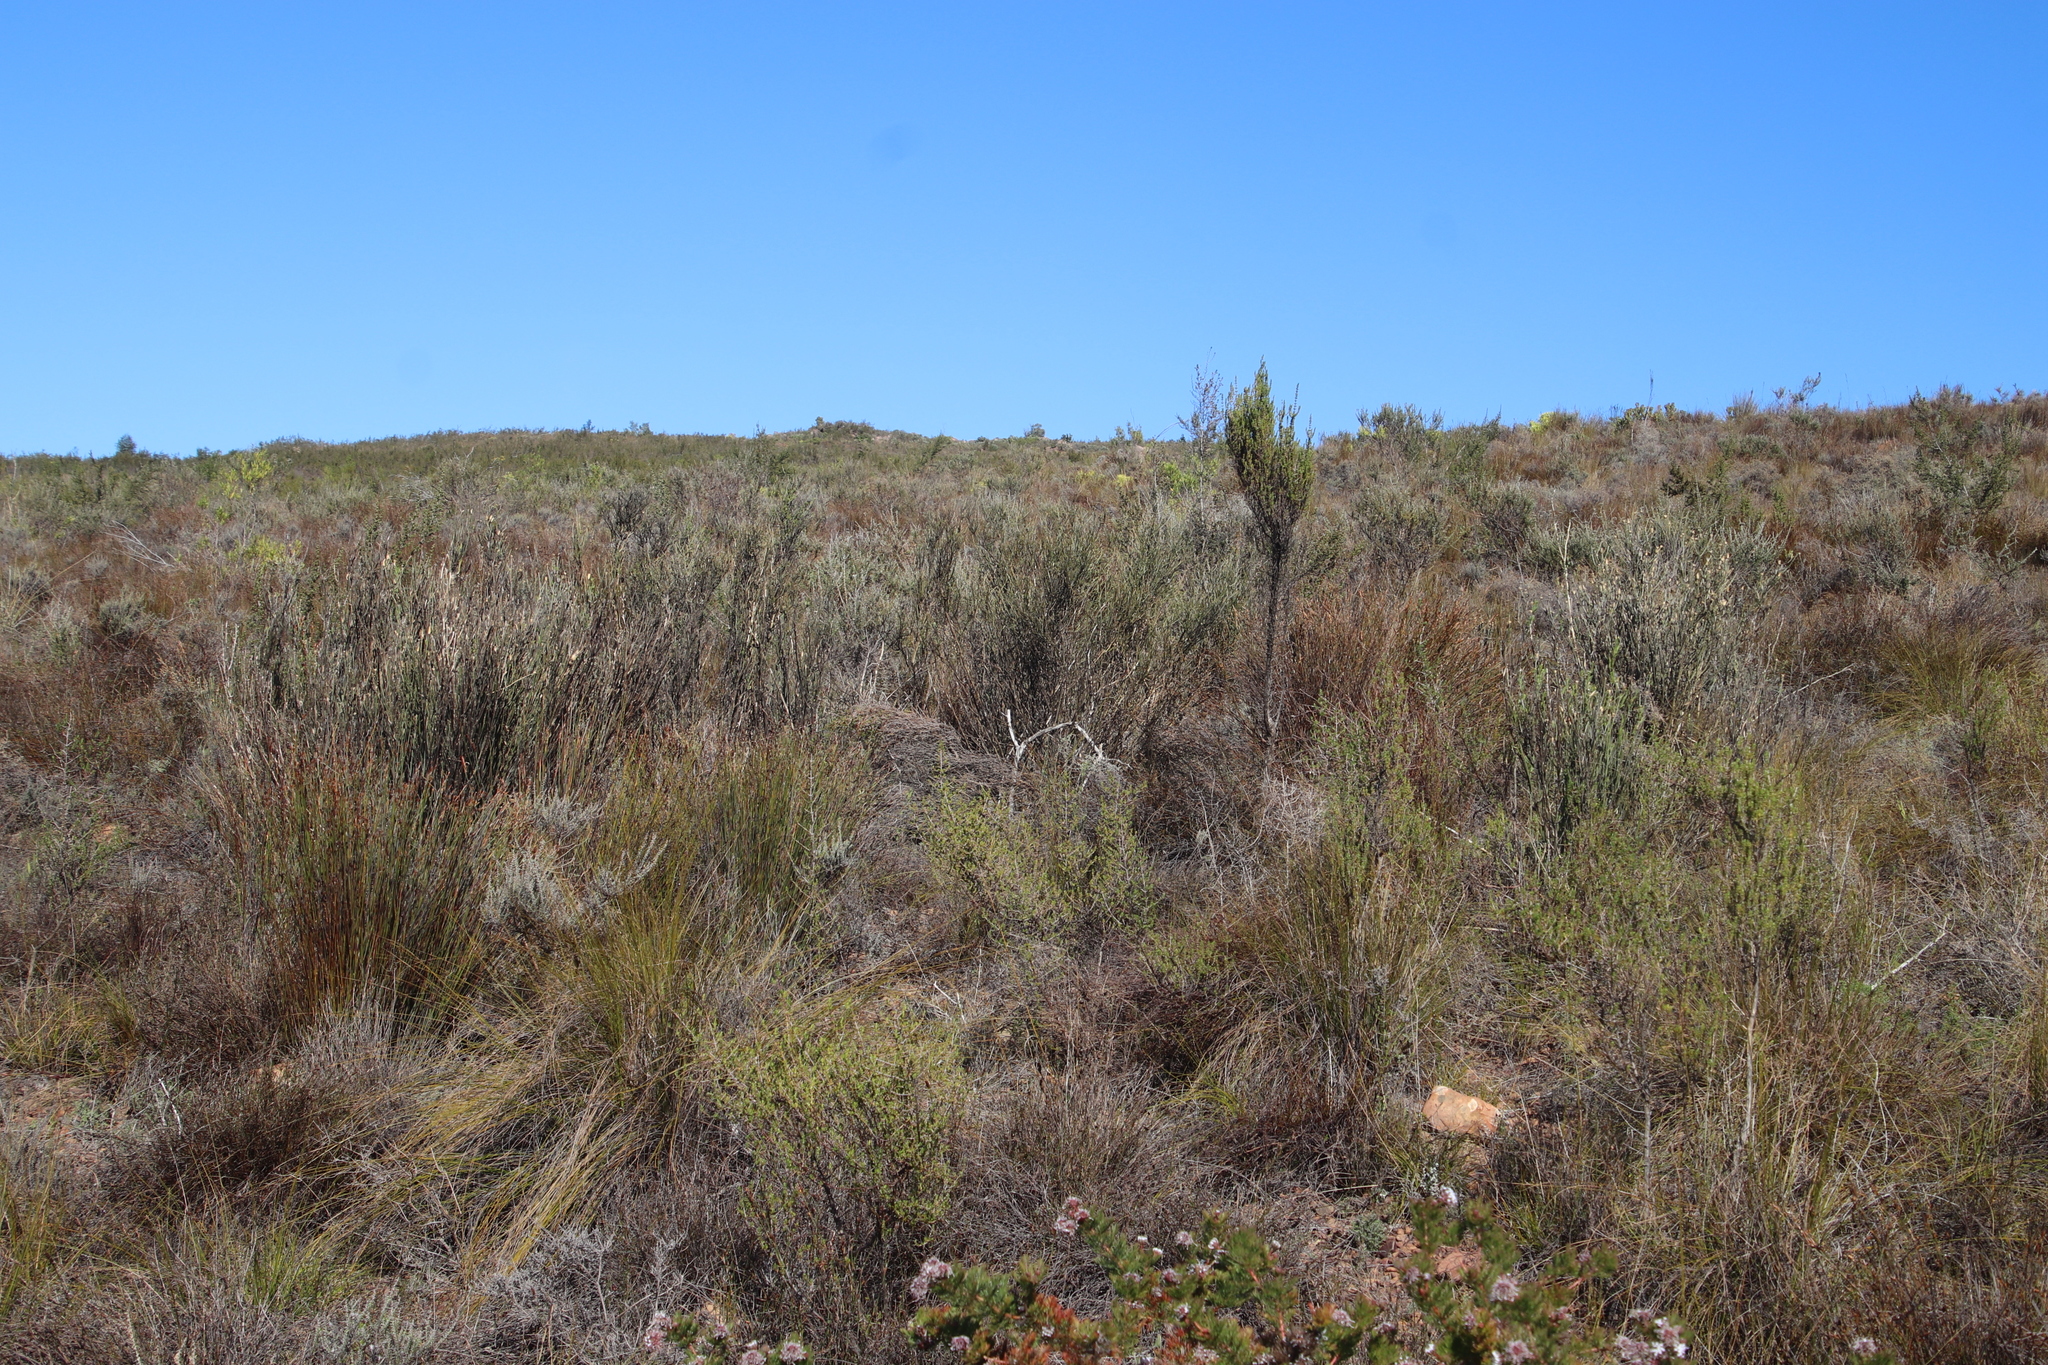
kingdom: Plantae
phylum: Tracheophyta
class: Magnoliopsida
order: Solanales
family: Montiniaceae
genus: Montinia
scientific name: Montinia caryophyllacea
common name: Wild clove-bush
